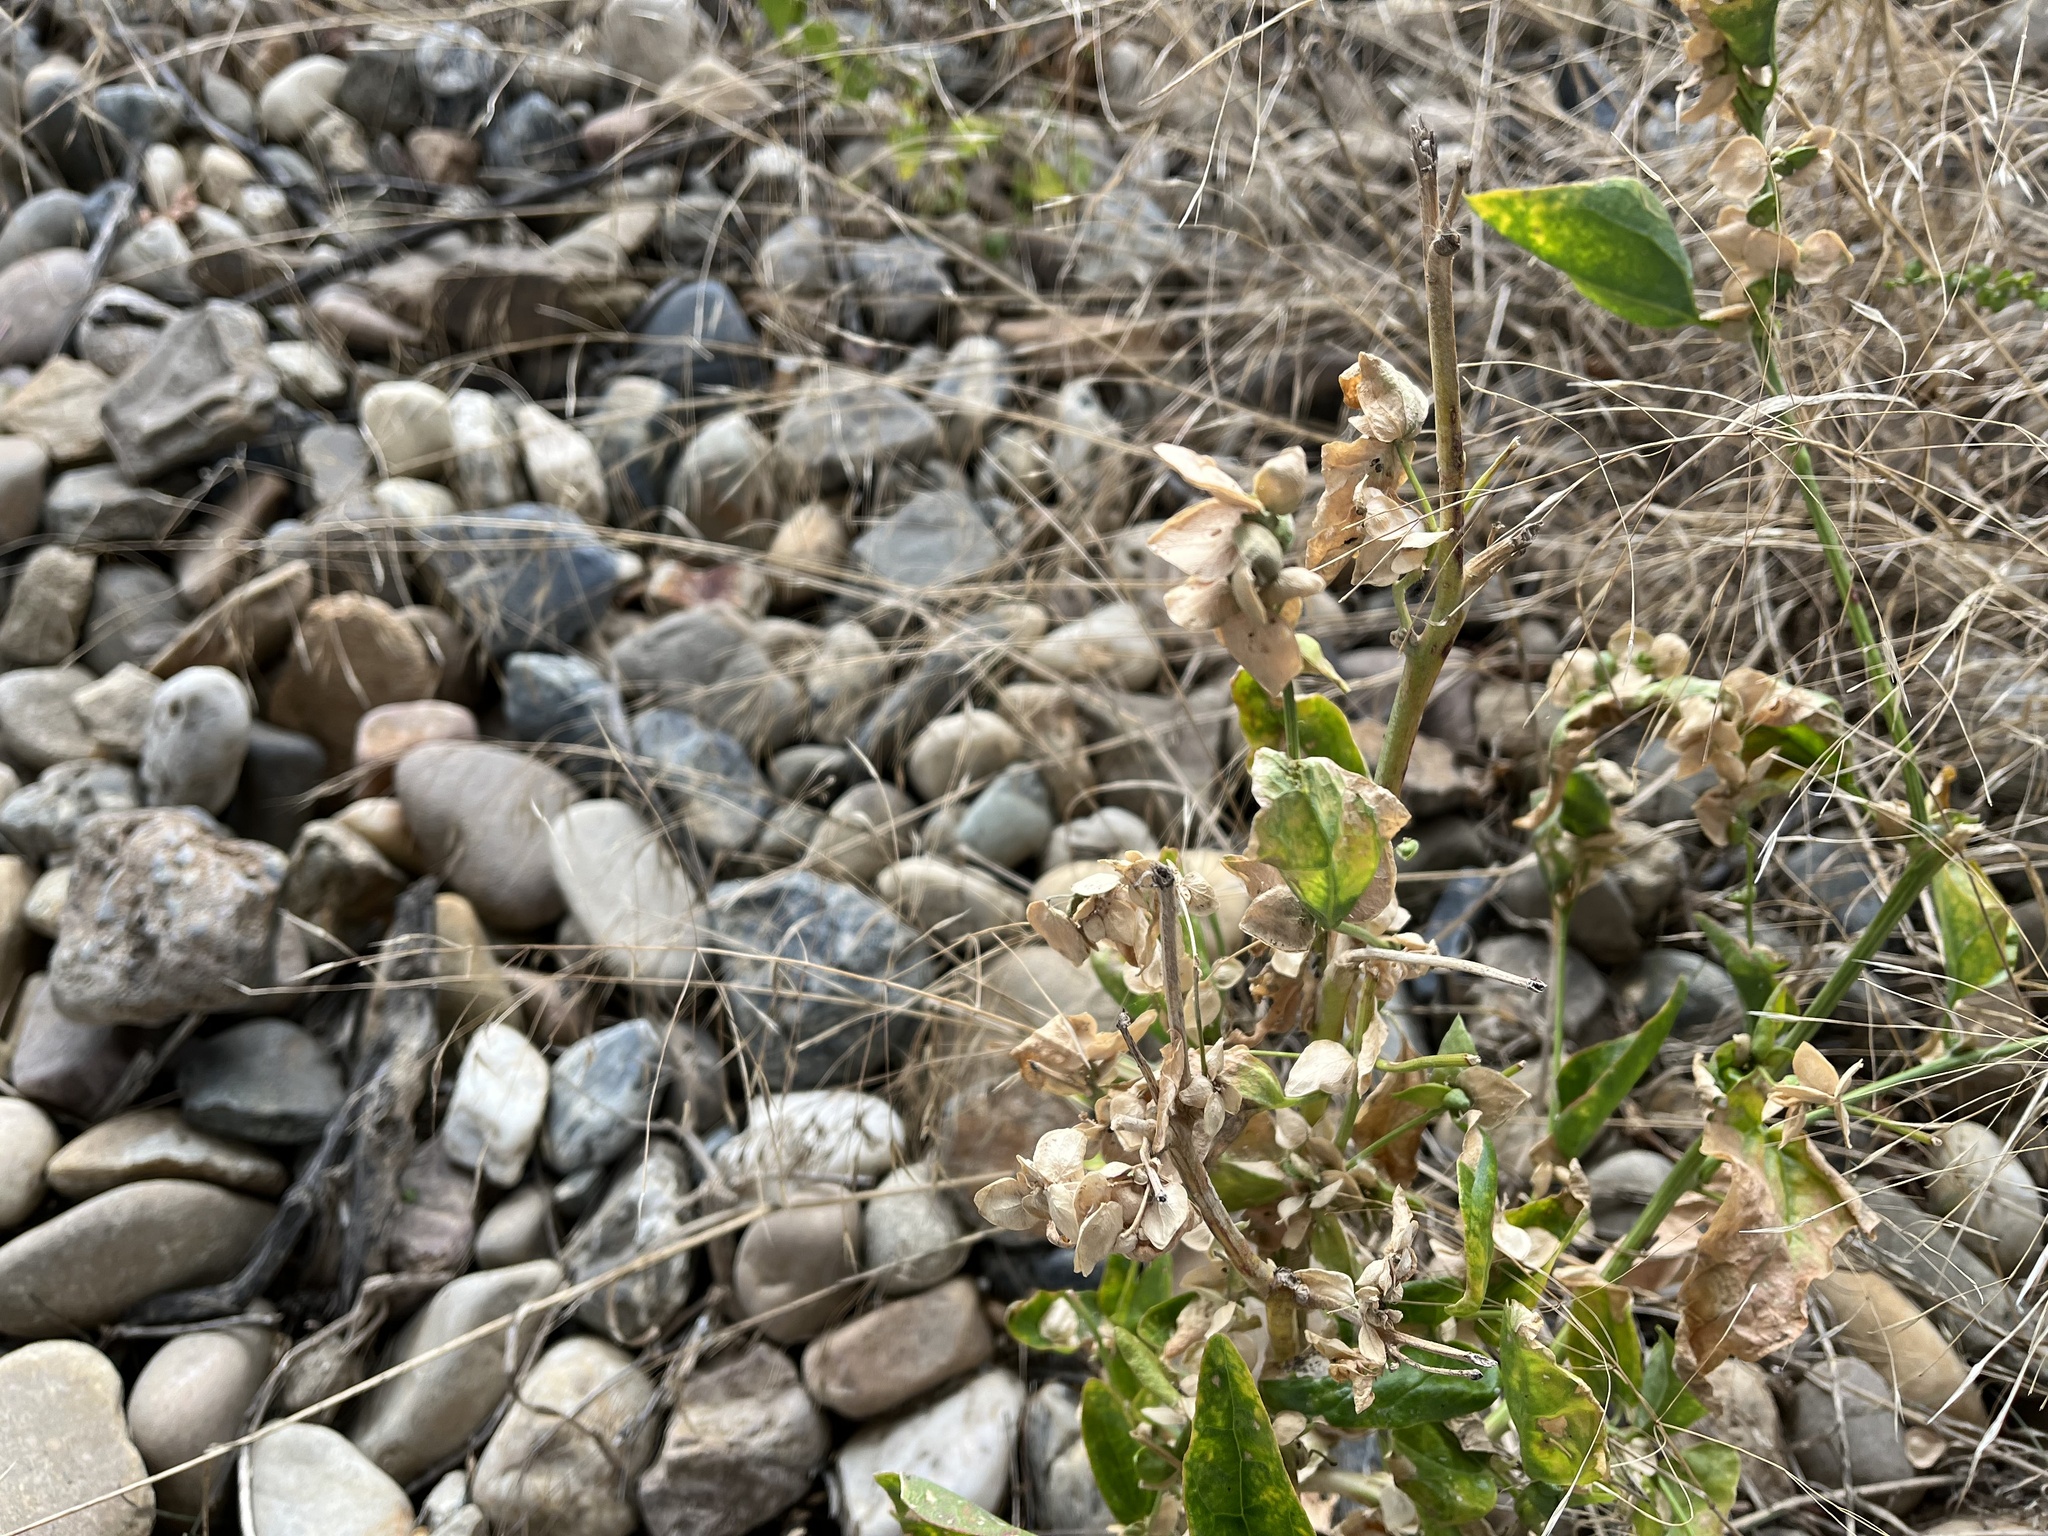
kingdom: Plantae
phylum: Tracheophyta
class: Magnoliopsida
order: Caryophyllales
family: Amaranthaceae
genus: Atriplex
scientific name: Atriplex sagittata
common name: Purple orache
